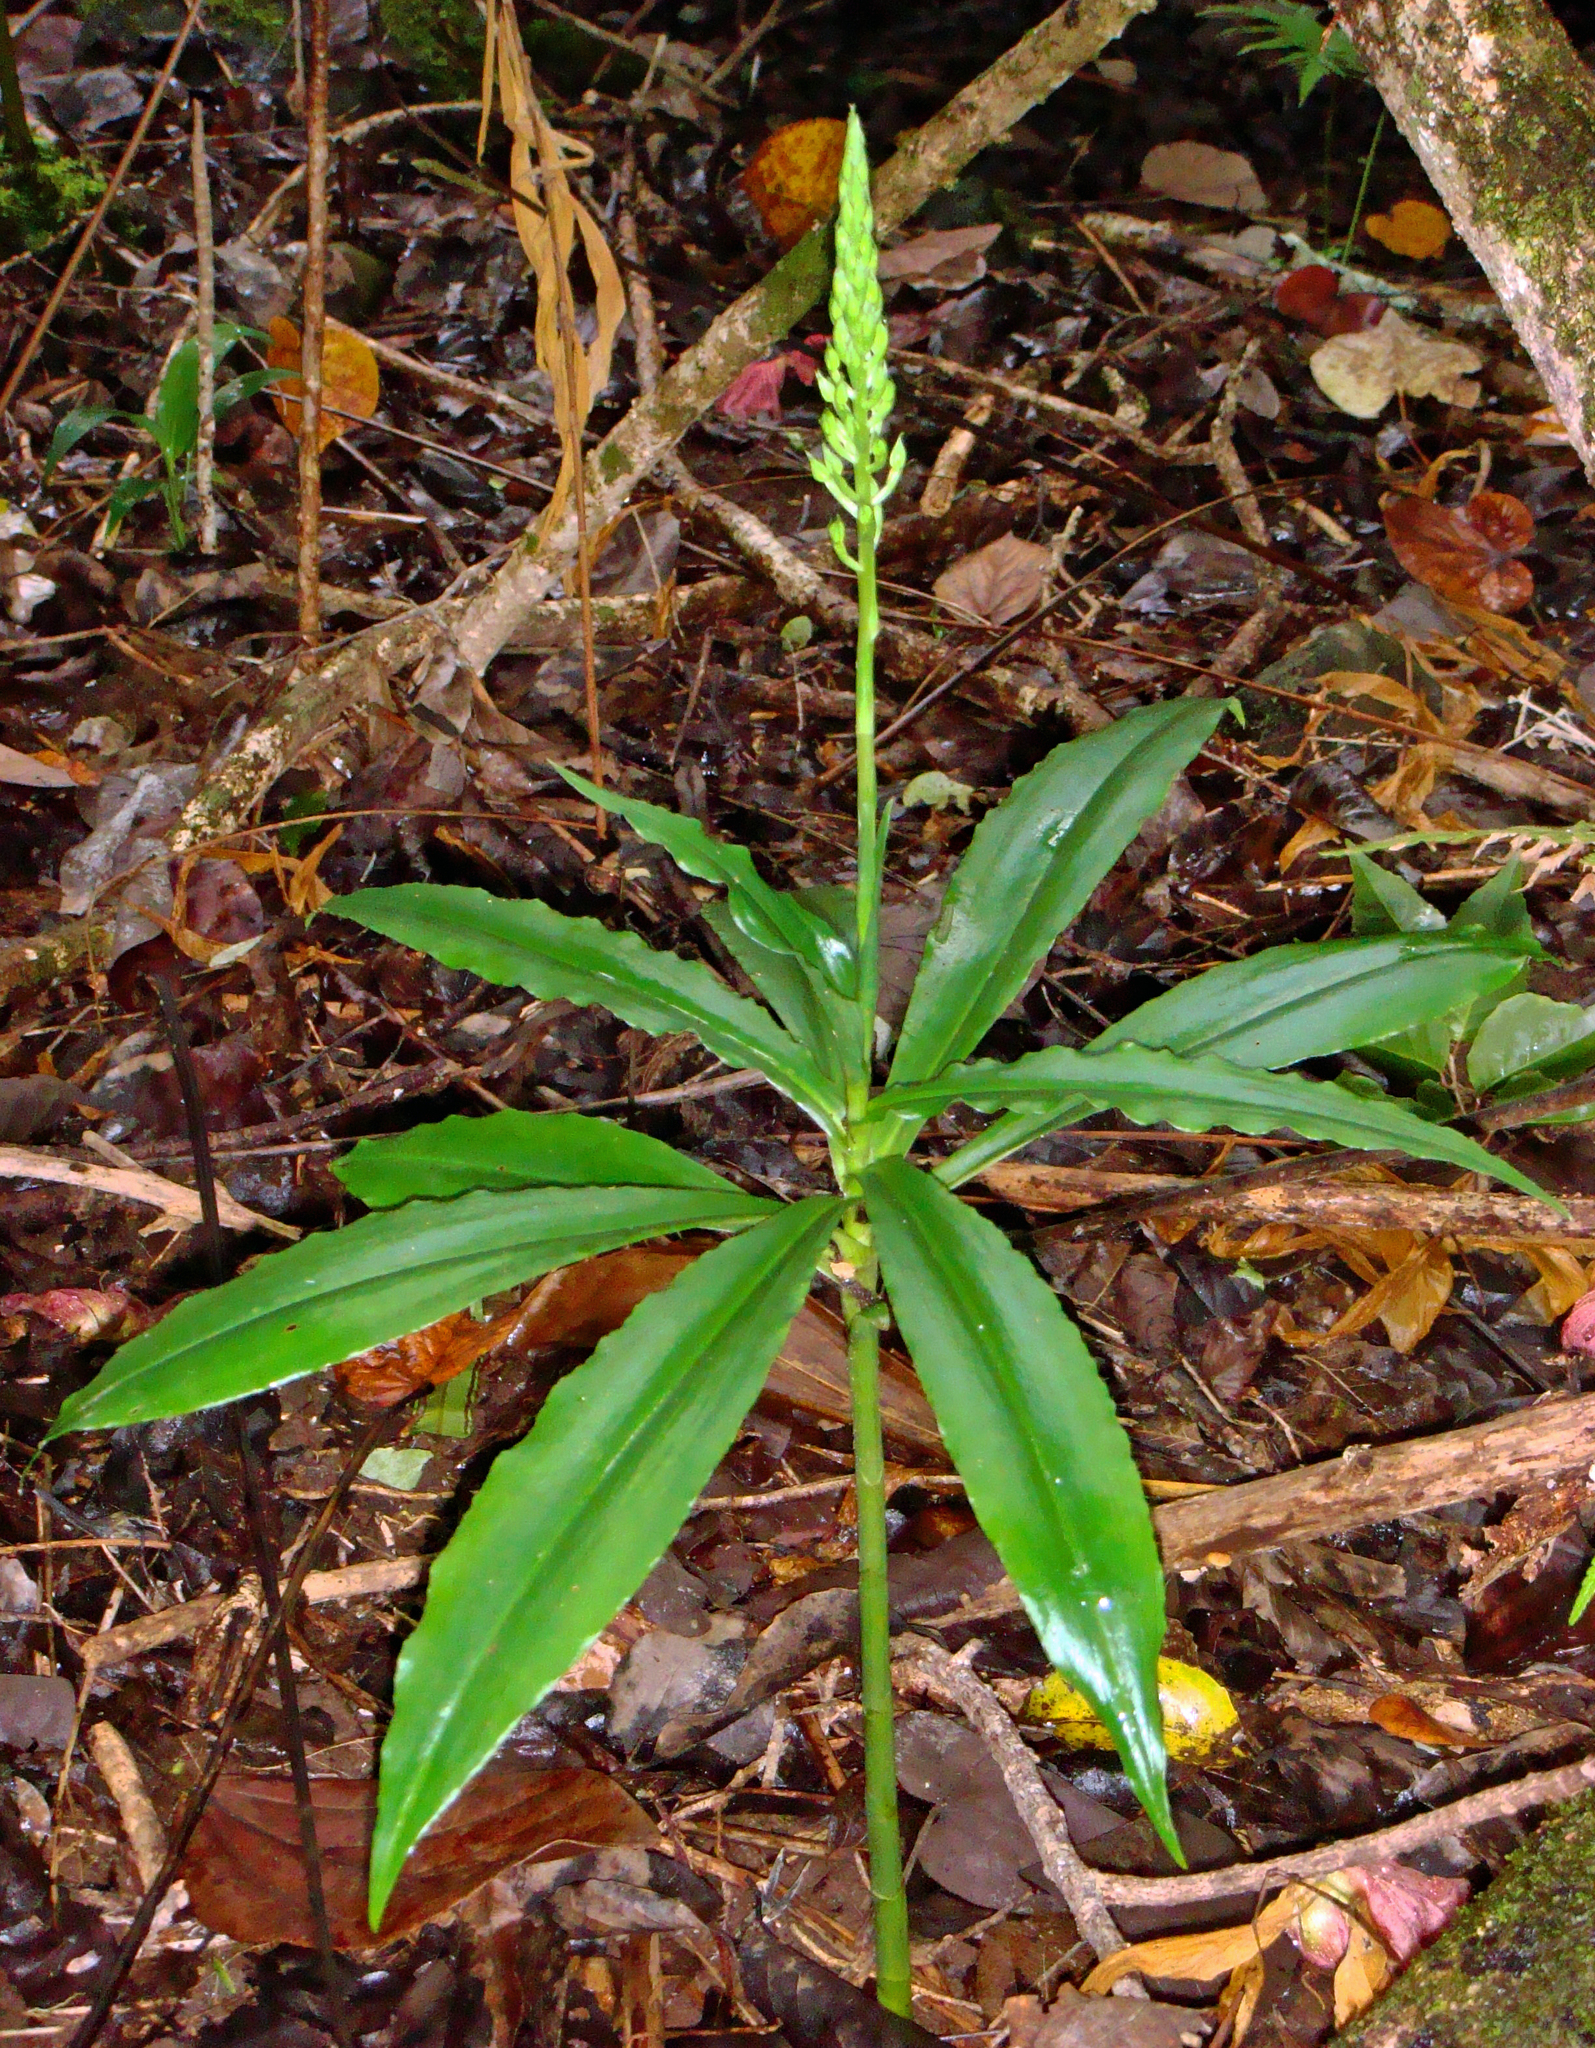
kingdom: Plantae
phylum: Tracheophyta
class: Liliopsida
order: Asparagales
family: Orchidaceae
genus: Habenaria
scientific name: Habenaria amplifolia
